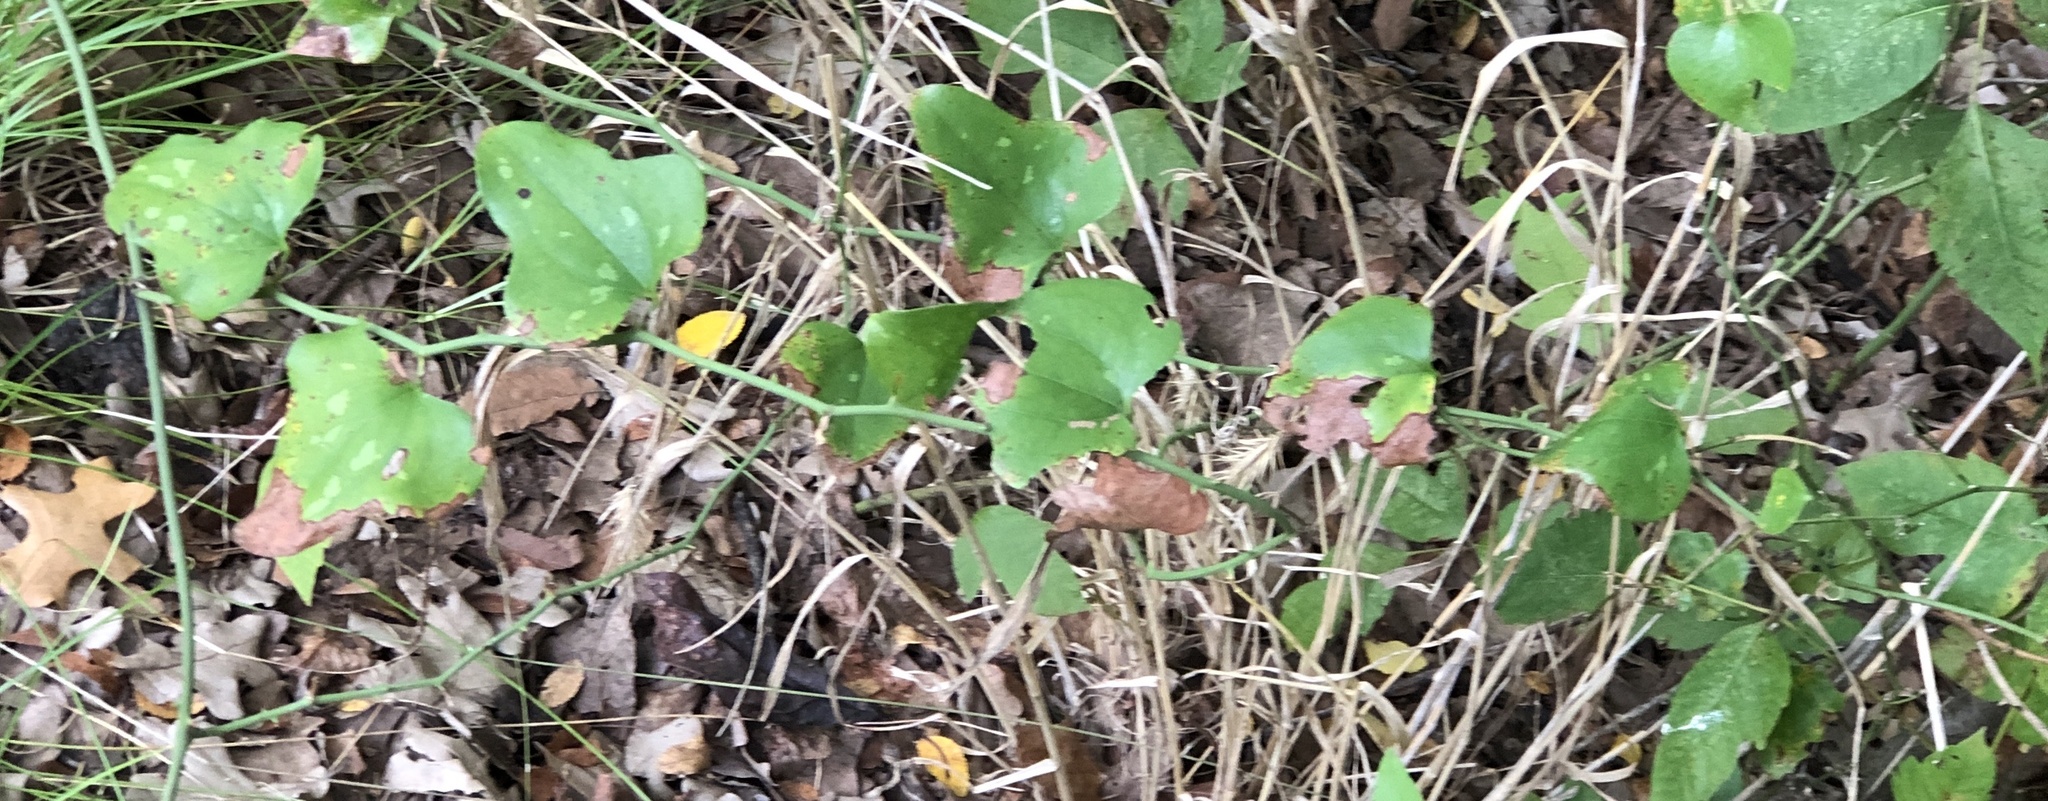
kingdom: Plantae
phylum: Tracheophyta
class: Liliopsida
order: Liliales
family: Smilacaceae
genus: Smilax
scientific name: Smilax bona-nox
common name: Catbrier
